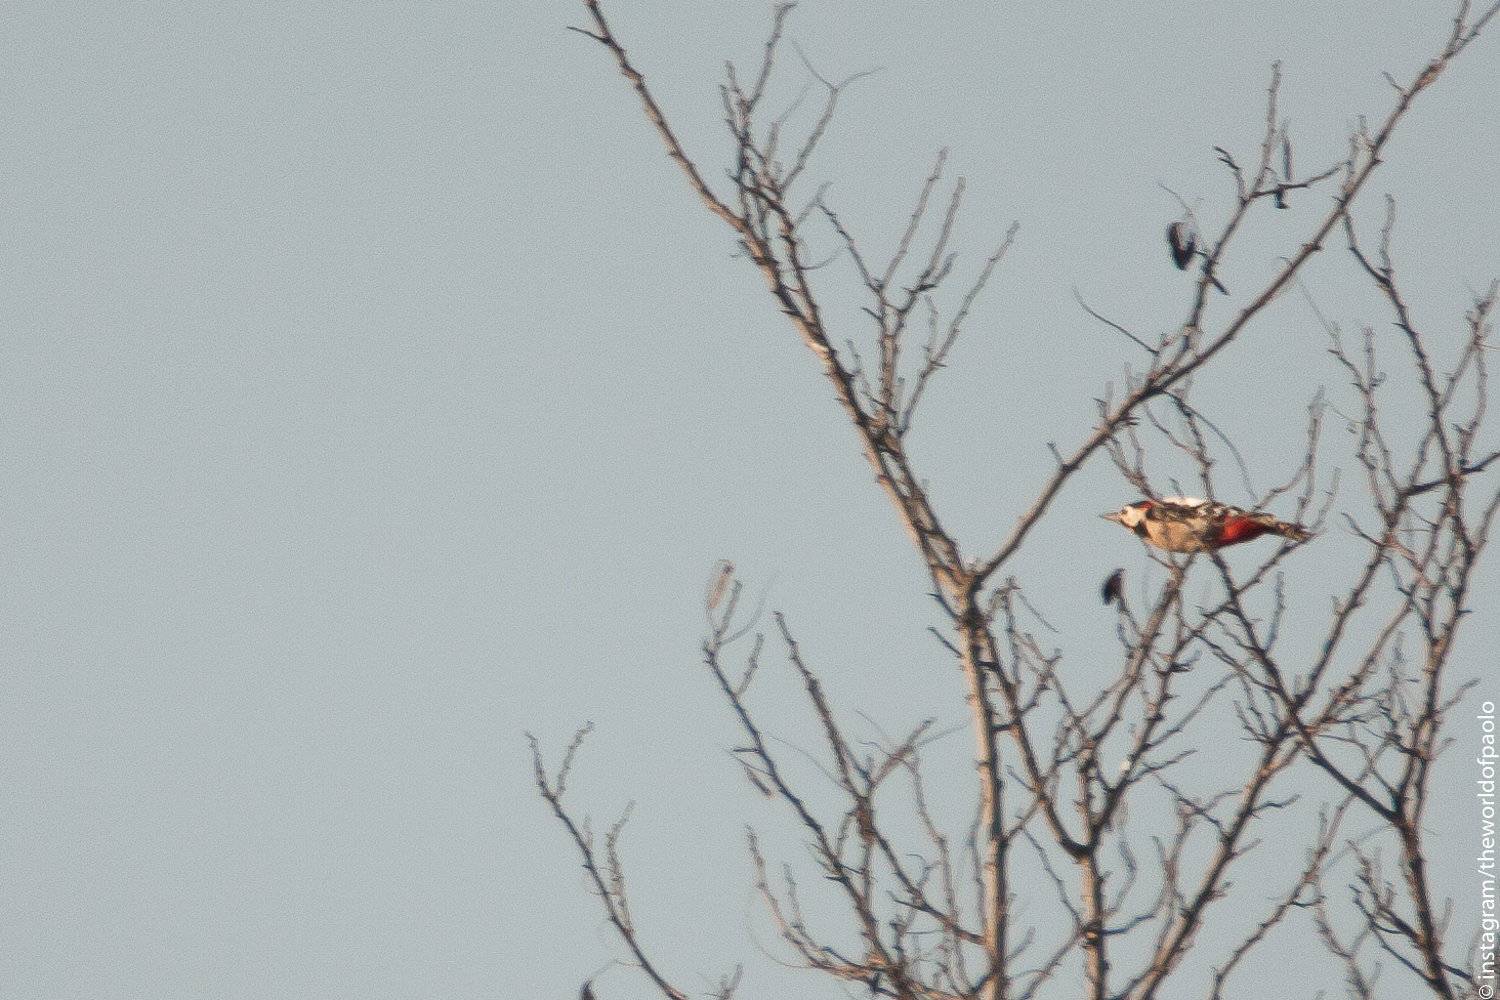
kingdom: Animalia
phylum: Chordata
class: Aves
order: Piciformes
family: Picidae
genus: Dendrocopos
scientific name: Dendrocopos major
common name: Great spotted woodpecker
